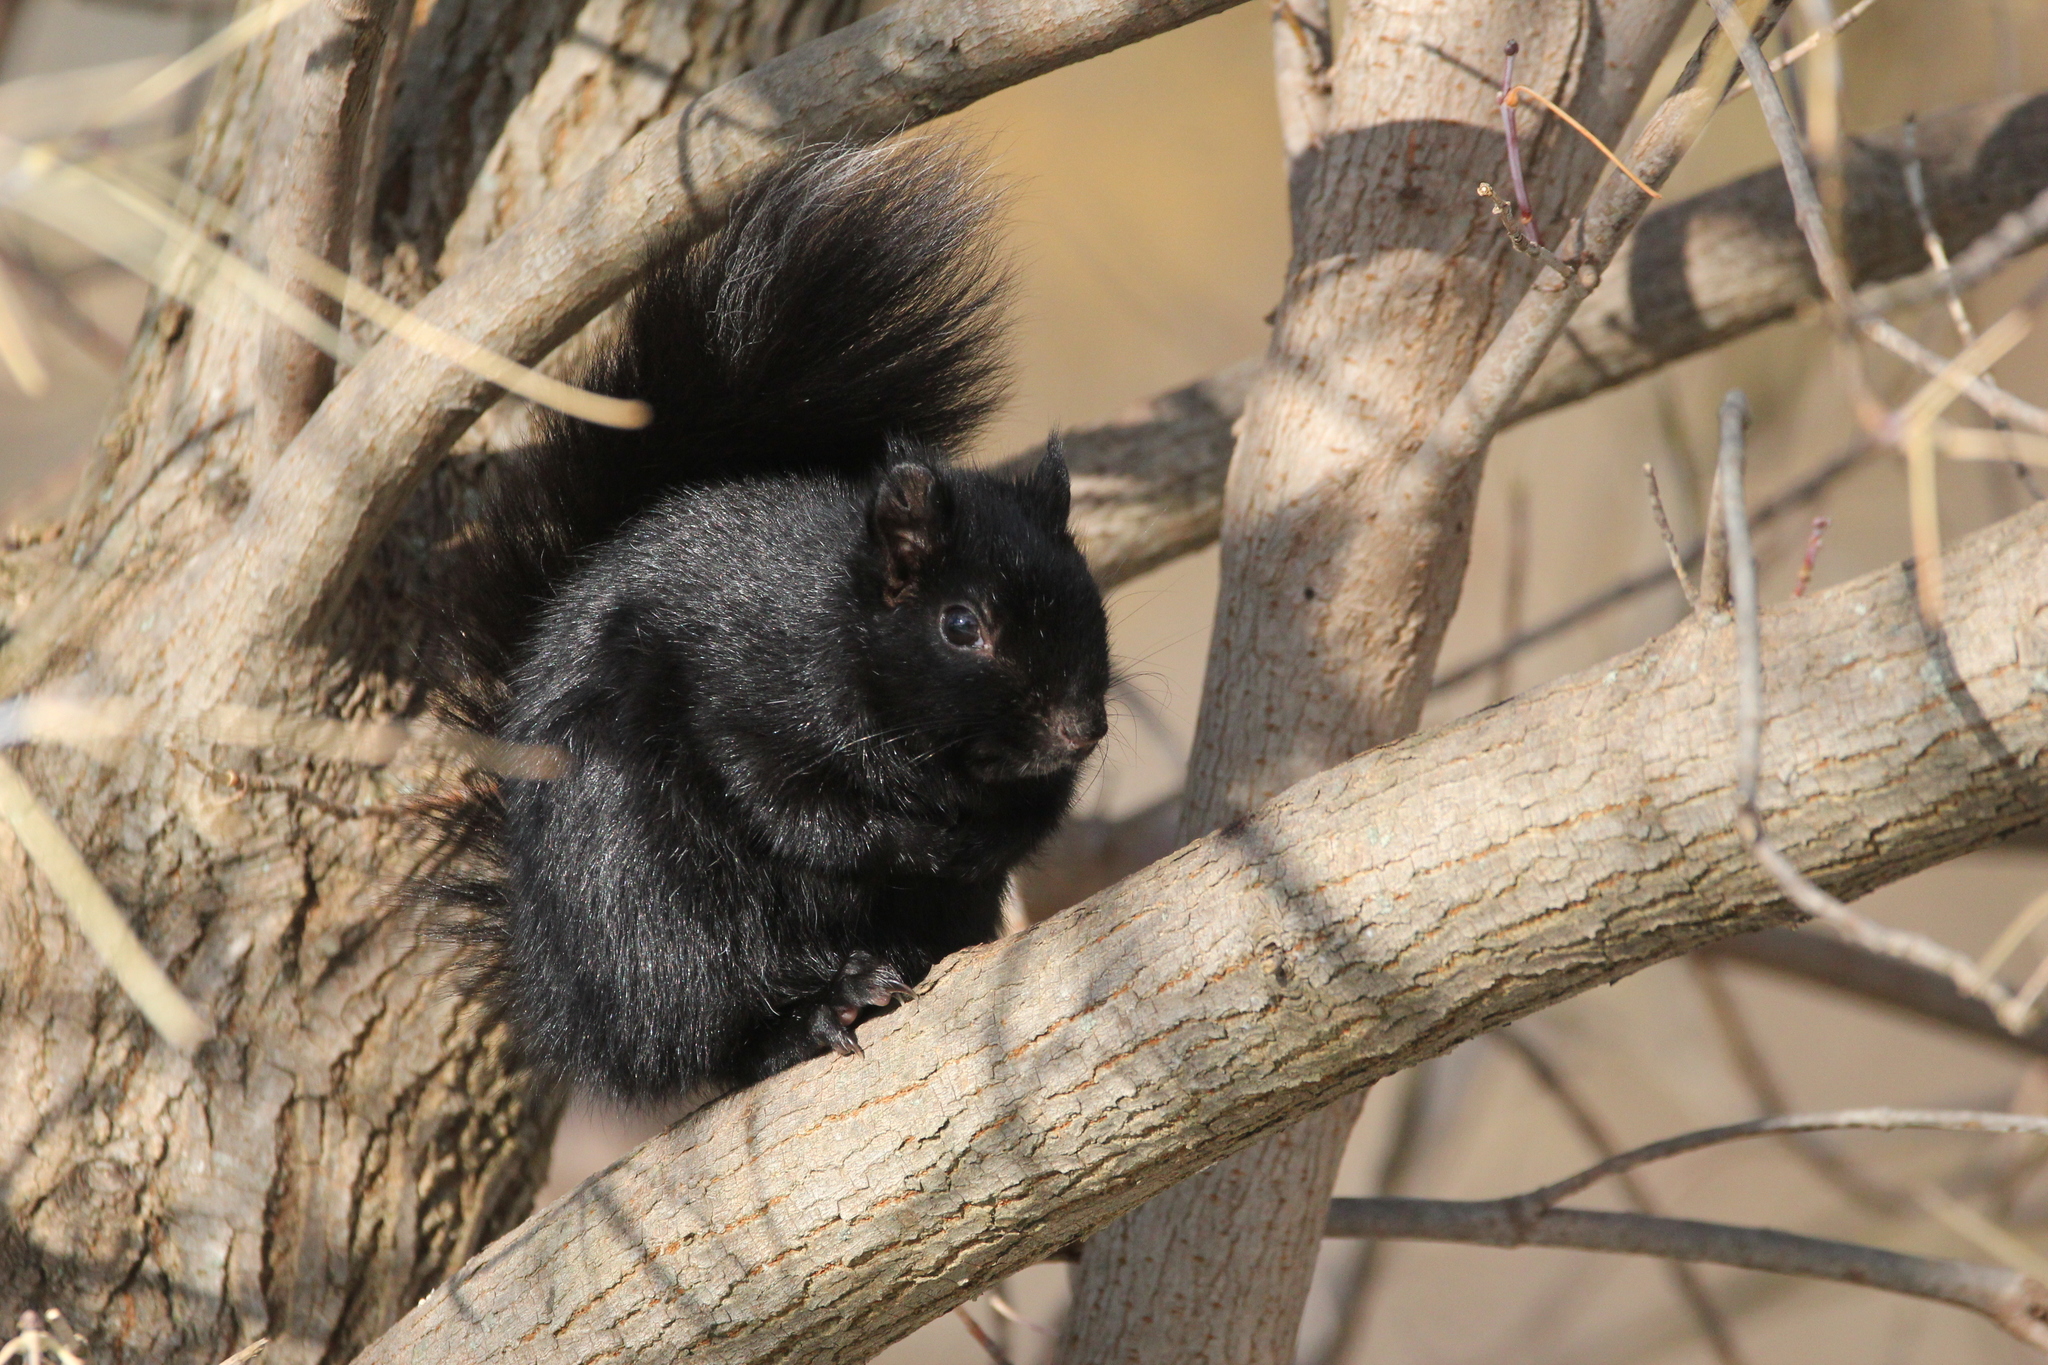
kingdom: Animalia
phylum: Chordata
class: Mammalia
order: Rodentia
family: Sciuridae
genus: Sciurus
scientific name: Sciurus carolinensis
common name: Eastern gray squirrel
